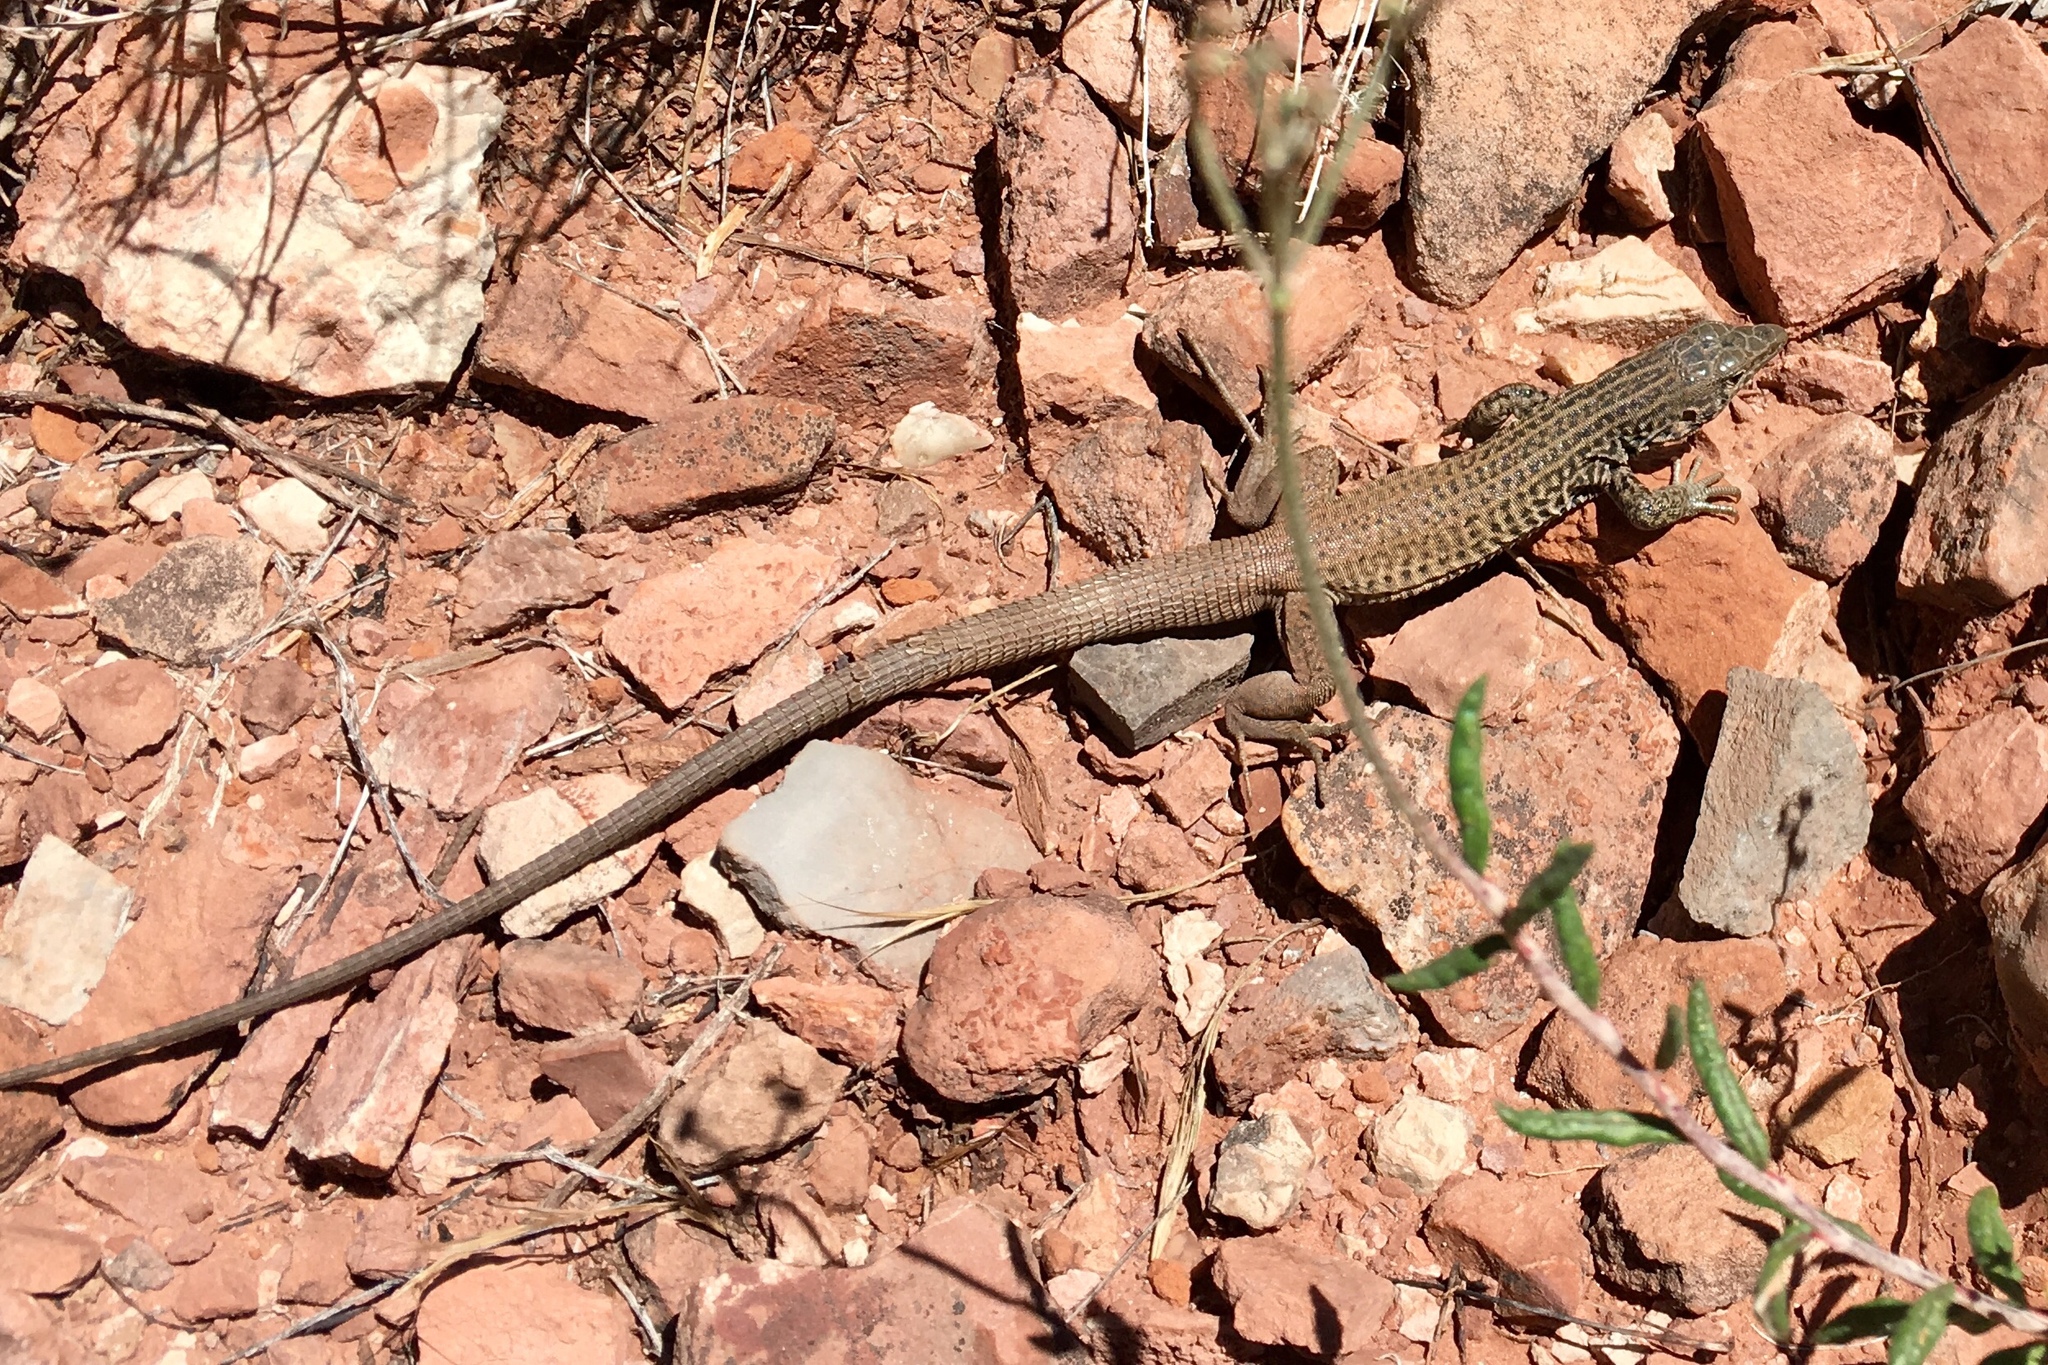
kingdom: Animalia
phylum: Chordata
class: Squamata
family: Teiidae
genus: Aspidoscelis
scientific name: Aspidoscelis tigris
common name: Tiger whiptail
